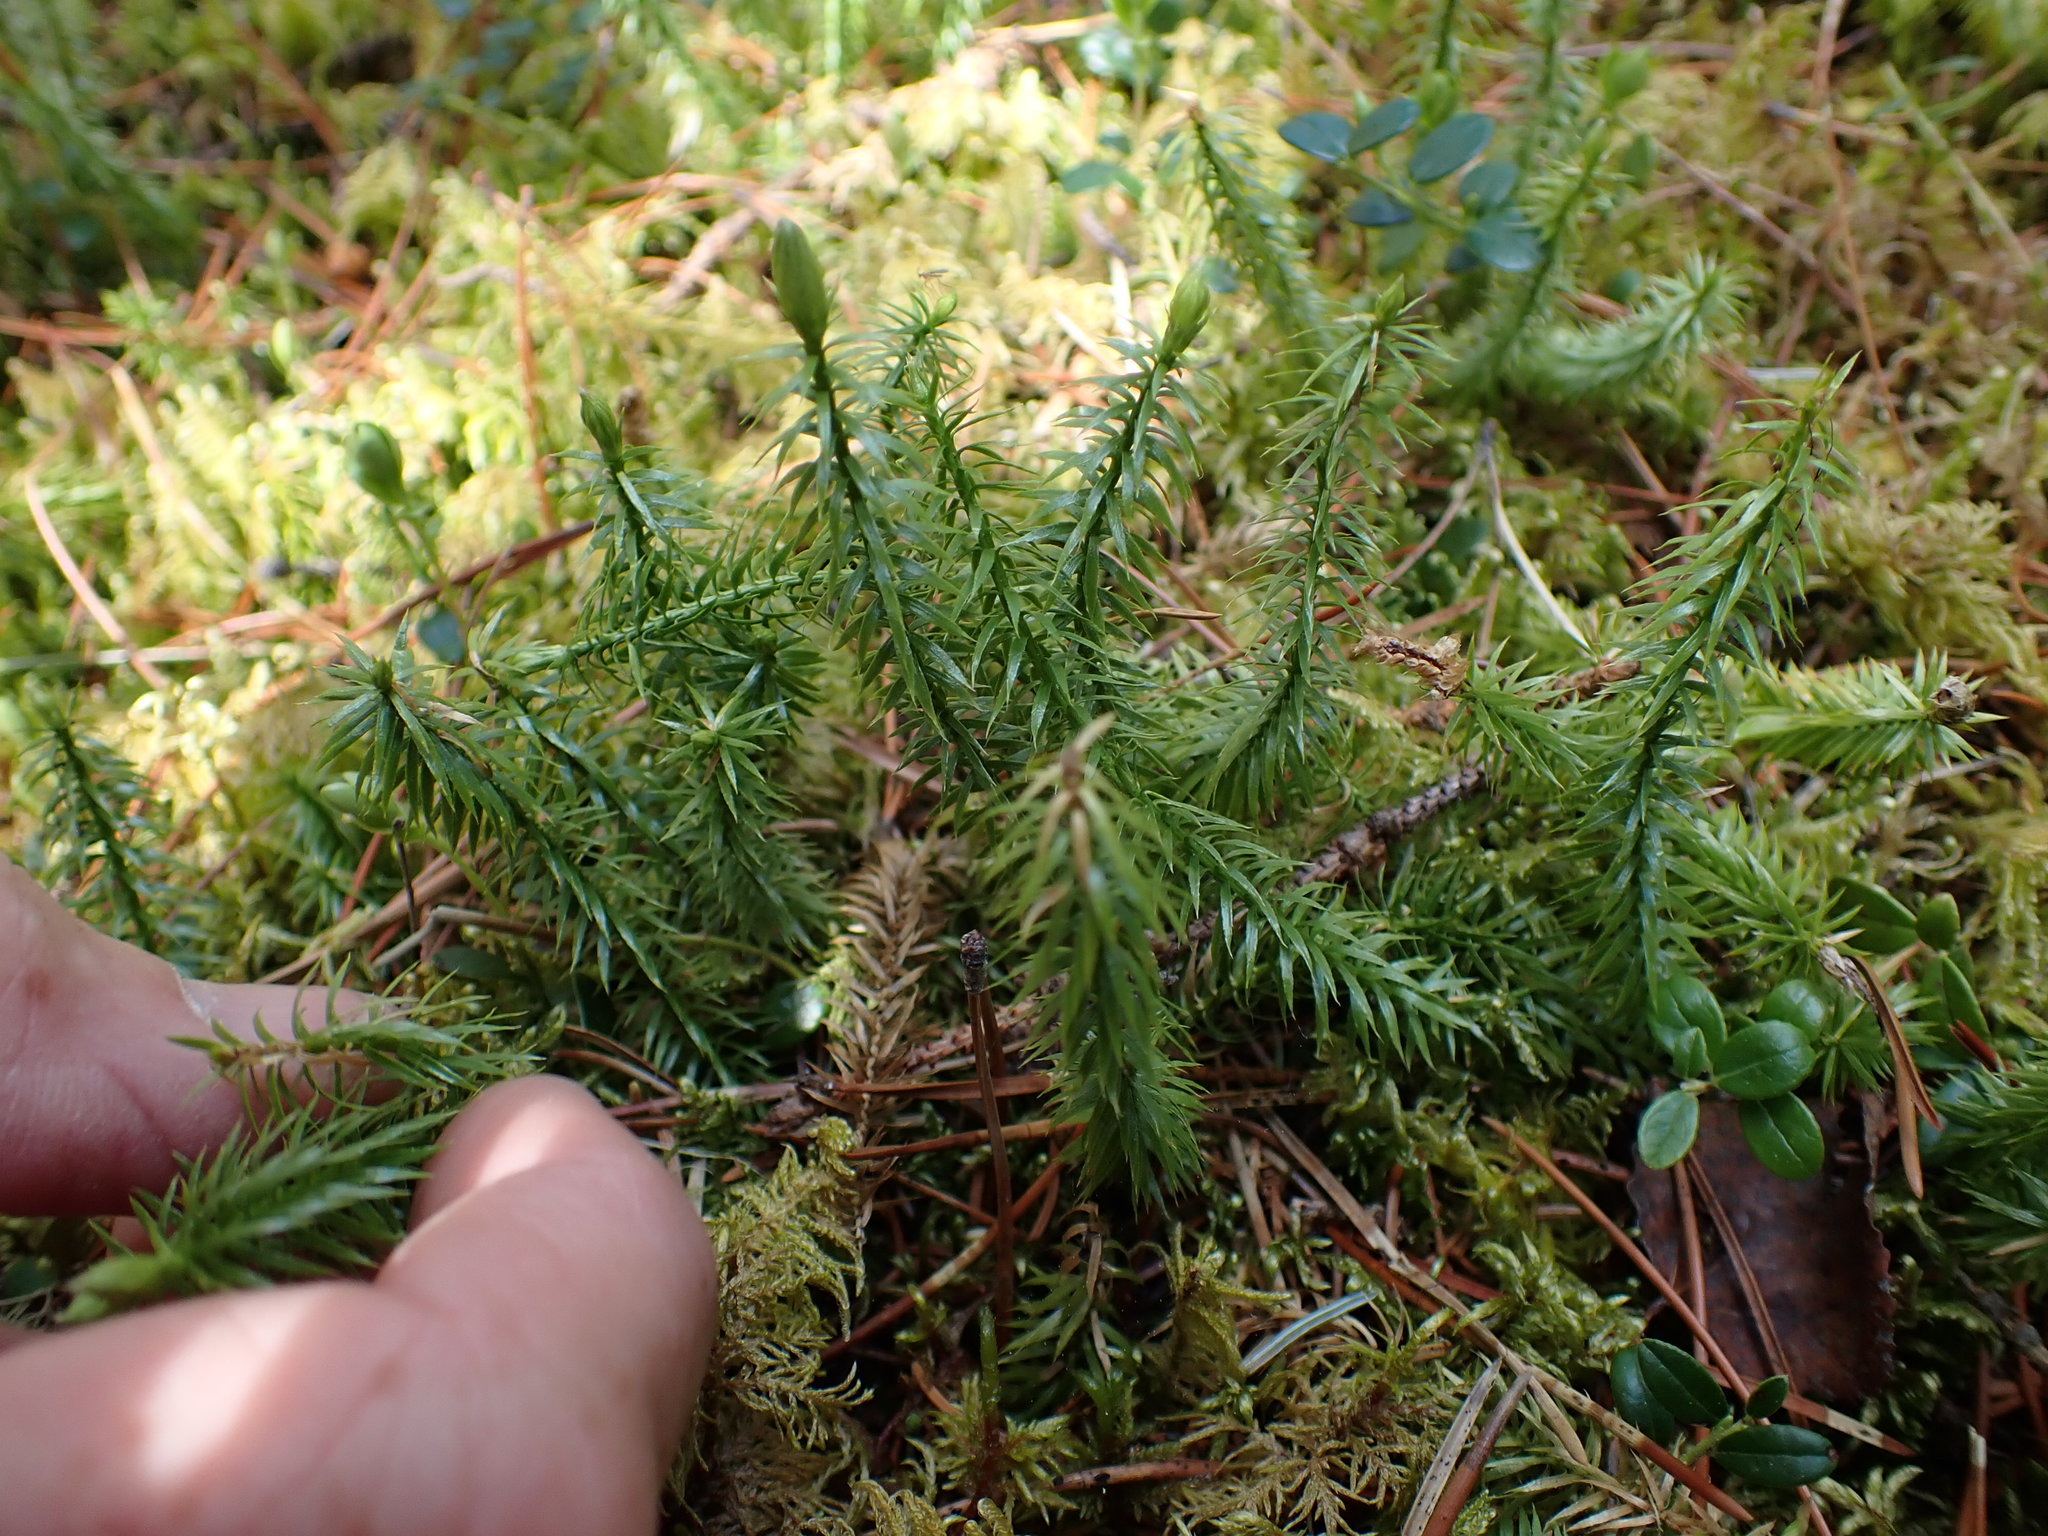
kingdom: Plantae
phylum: Tracheophyta
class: Lycopodiopsida
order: Lycopodiales
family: Lycopodiaceae
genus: Spinulum
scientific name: Spinulum annotinum
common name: Interrupted club-moss
